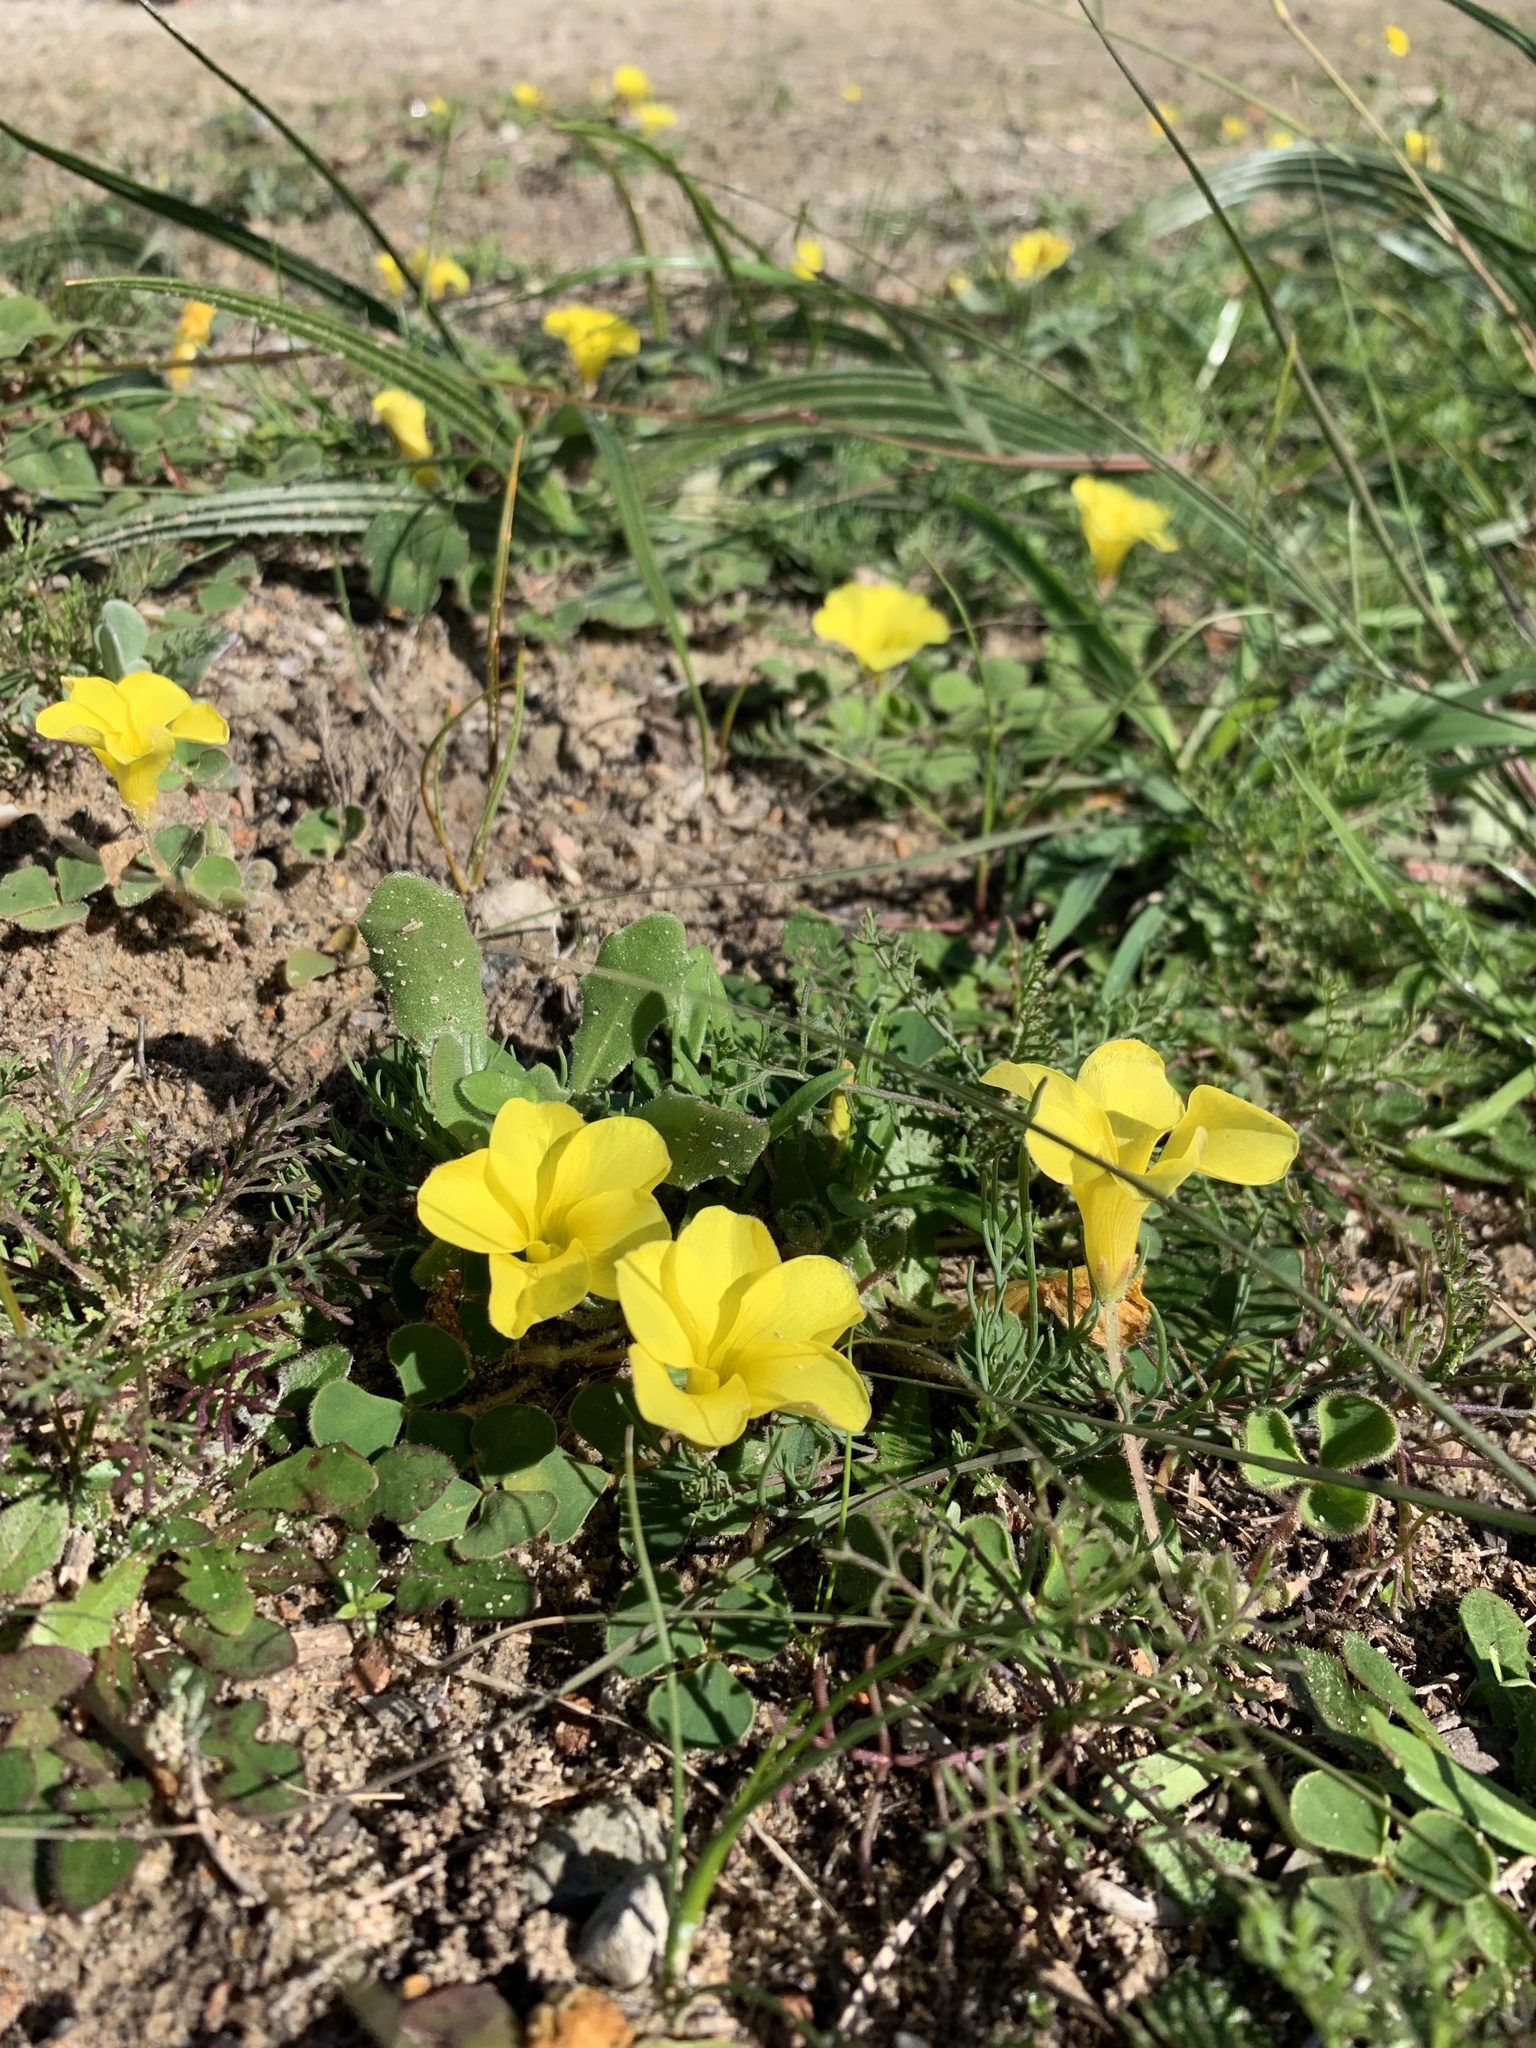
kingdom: Plantae
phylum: Tracheophyta
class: Magnoliopsida
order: Oxalidales
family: Oxalidaceae
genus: Oxalis
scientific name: Oxalis luteola
